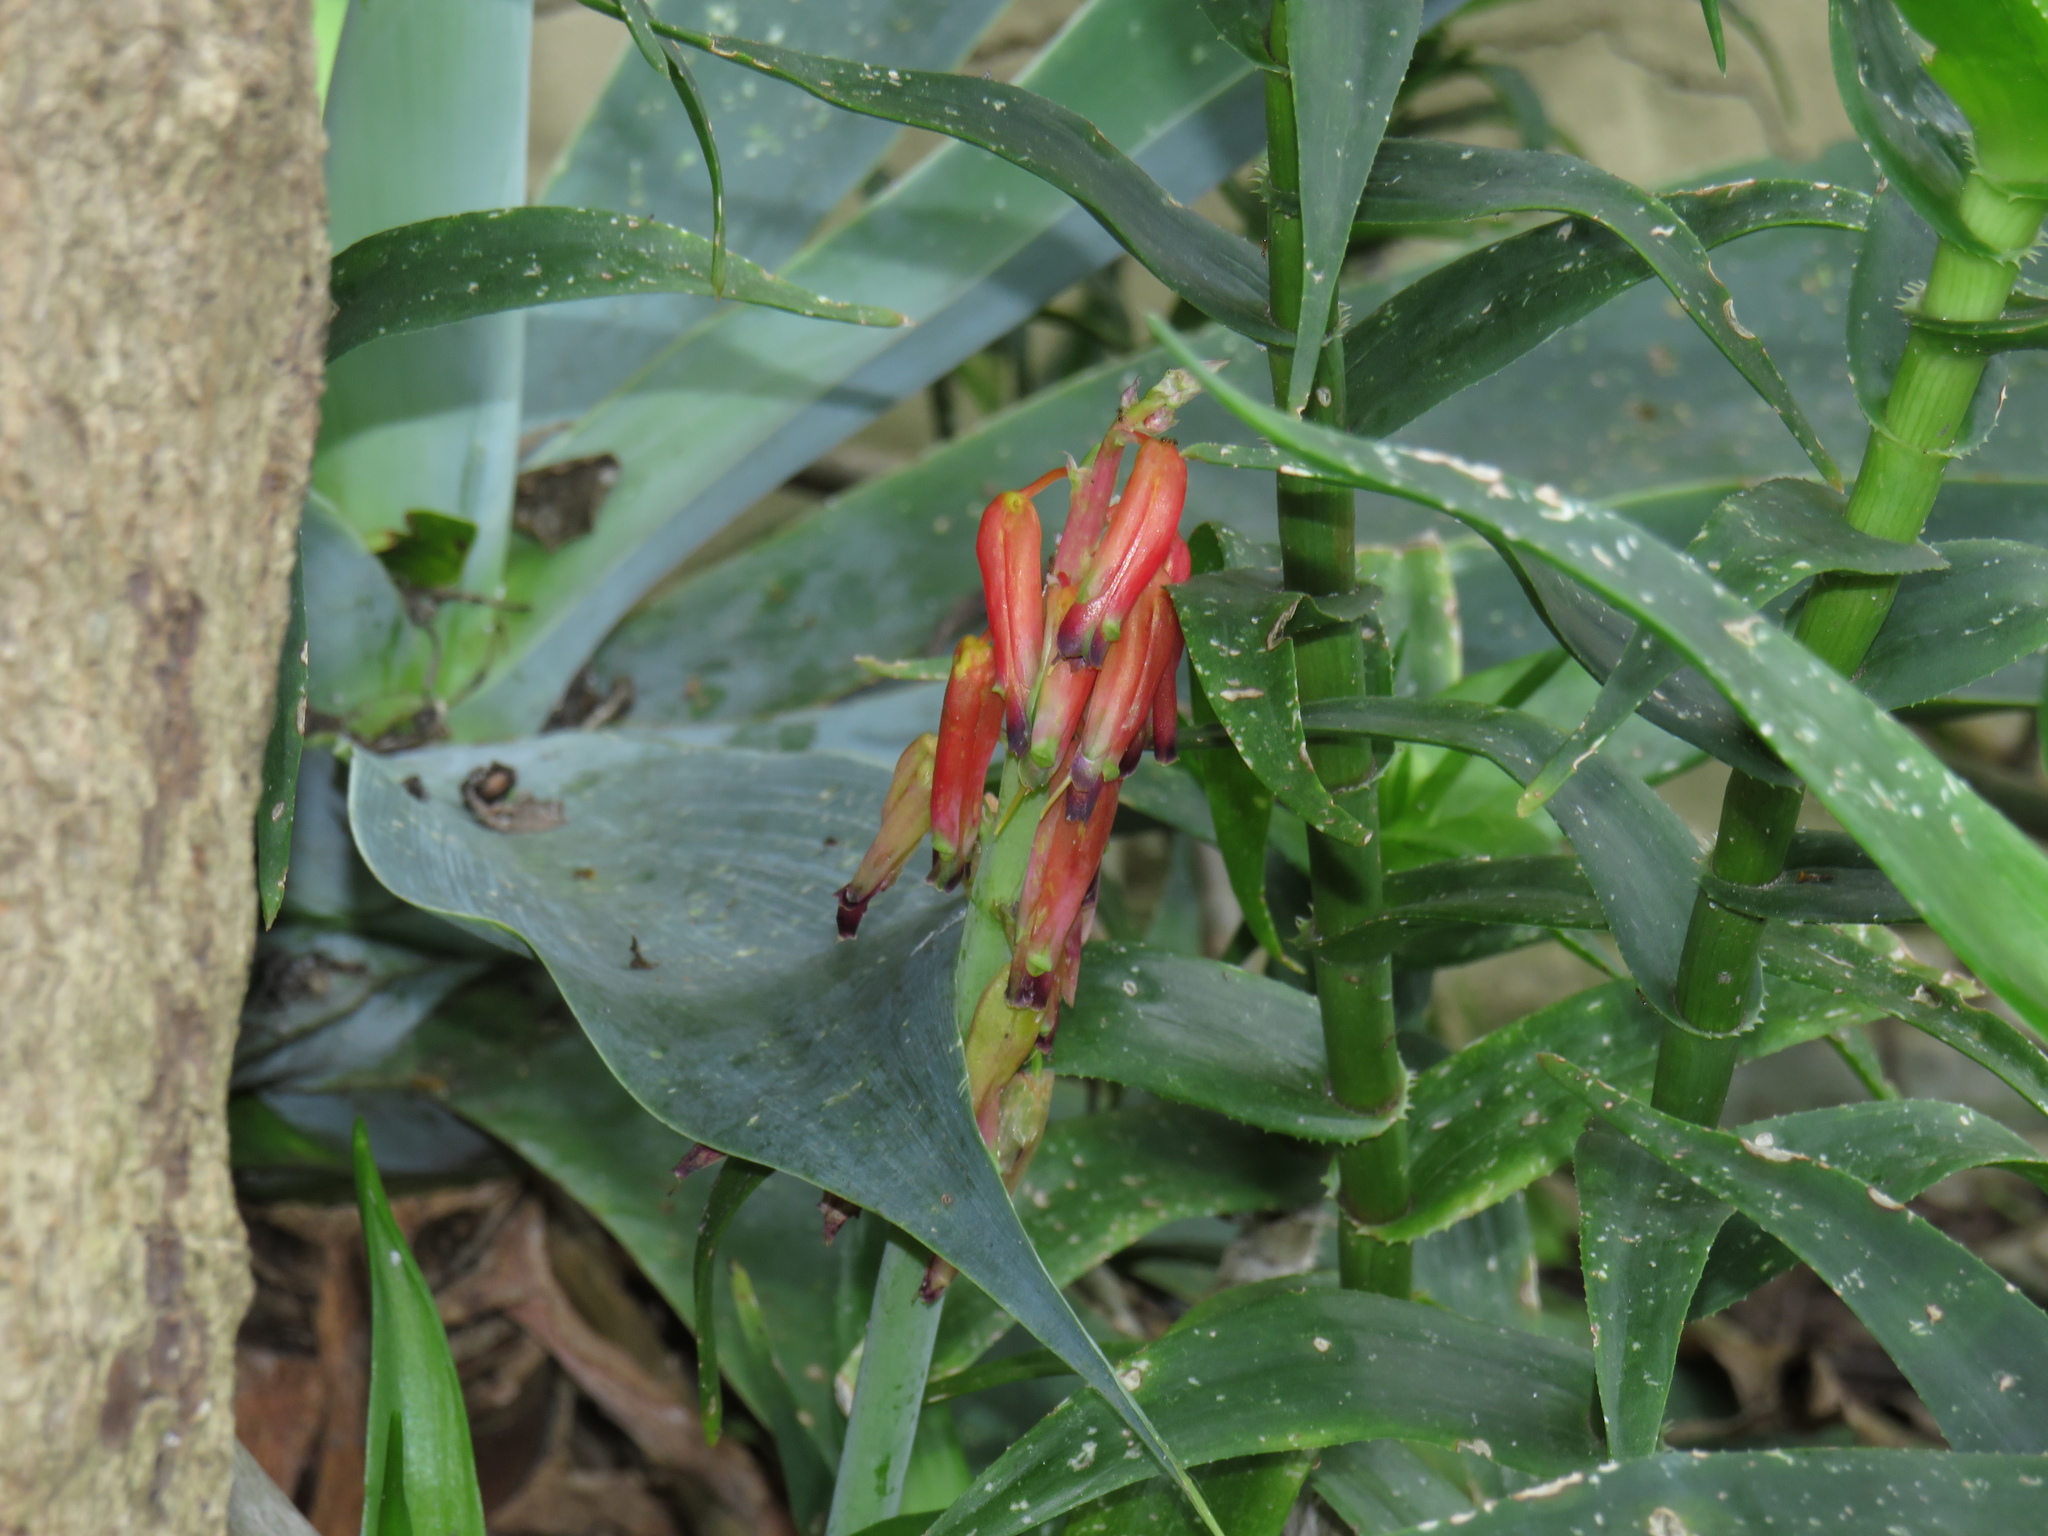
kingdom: Plantae
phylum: Tracheophyta
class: Liliopsida
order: Asparagales
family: Asparagaceae
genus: Lachenalia
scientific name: Lachenalia bulbifera
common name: Red lachenalia
